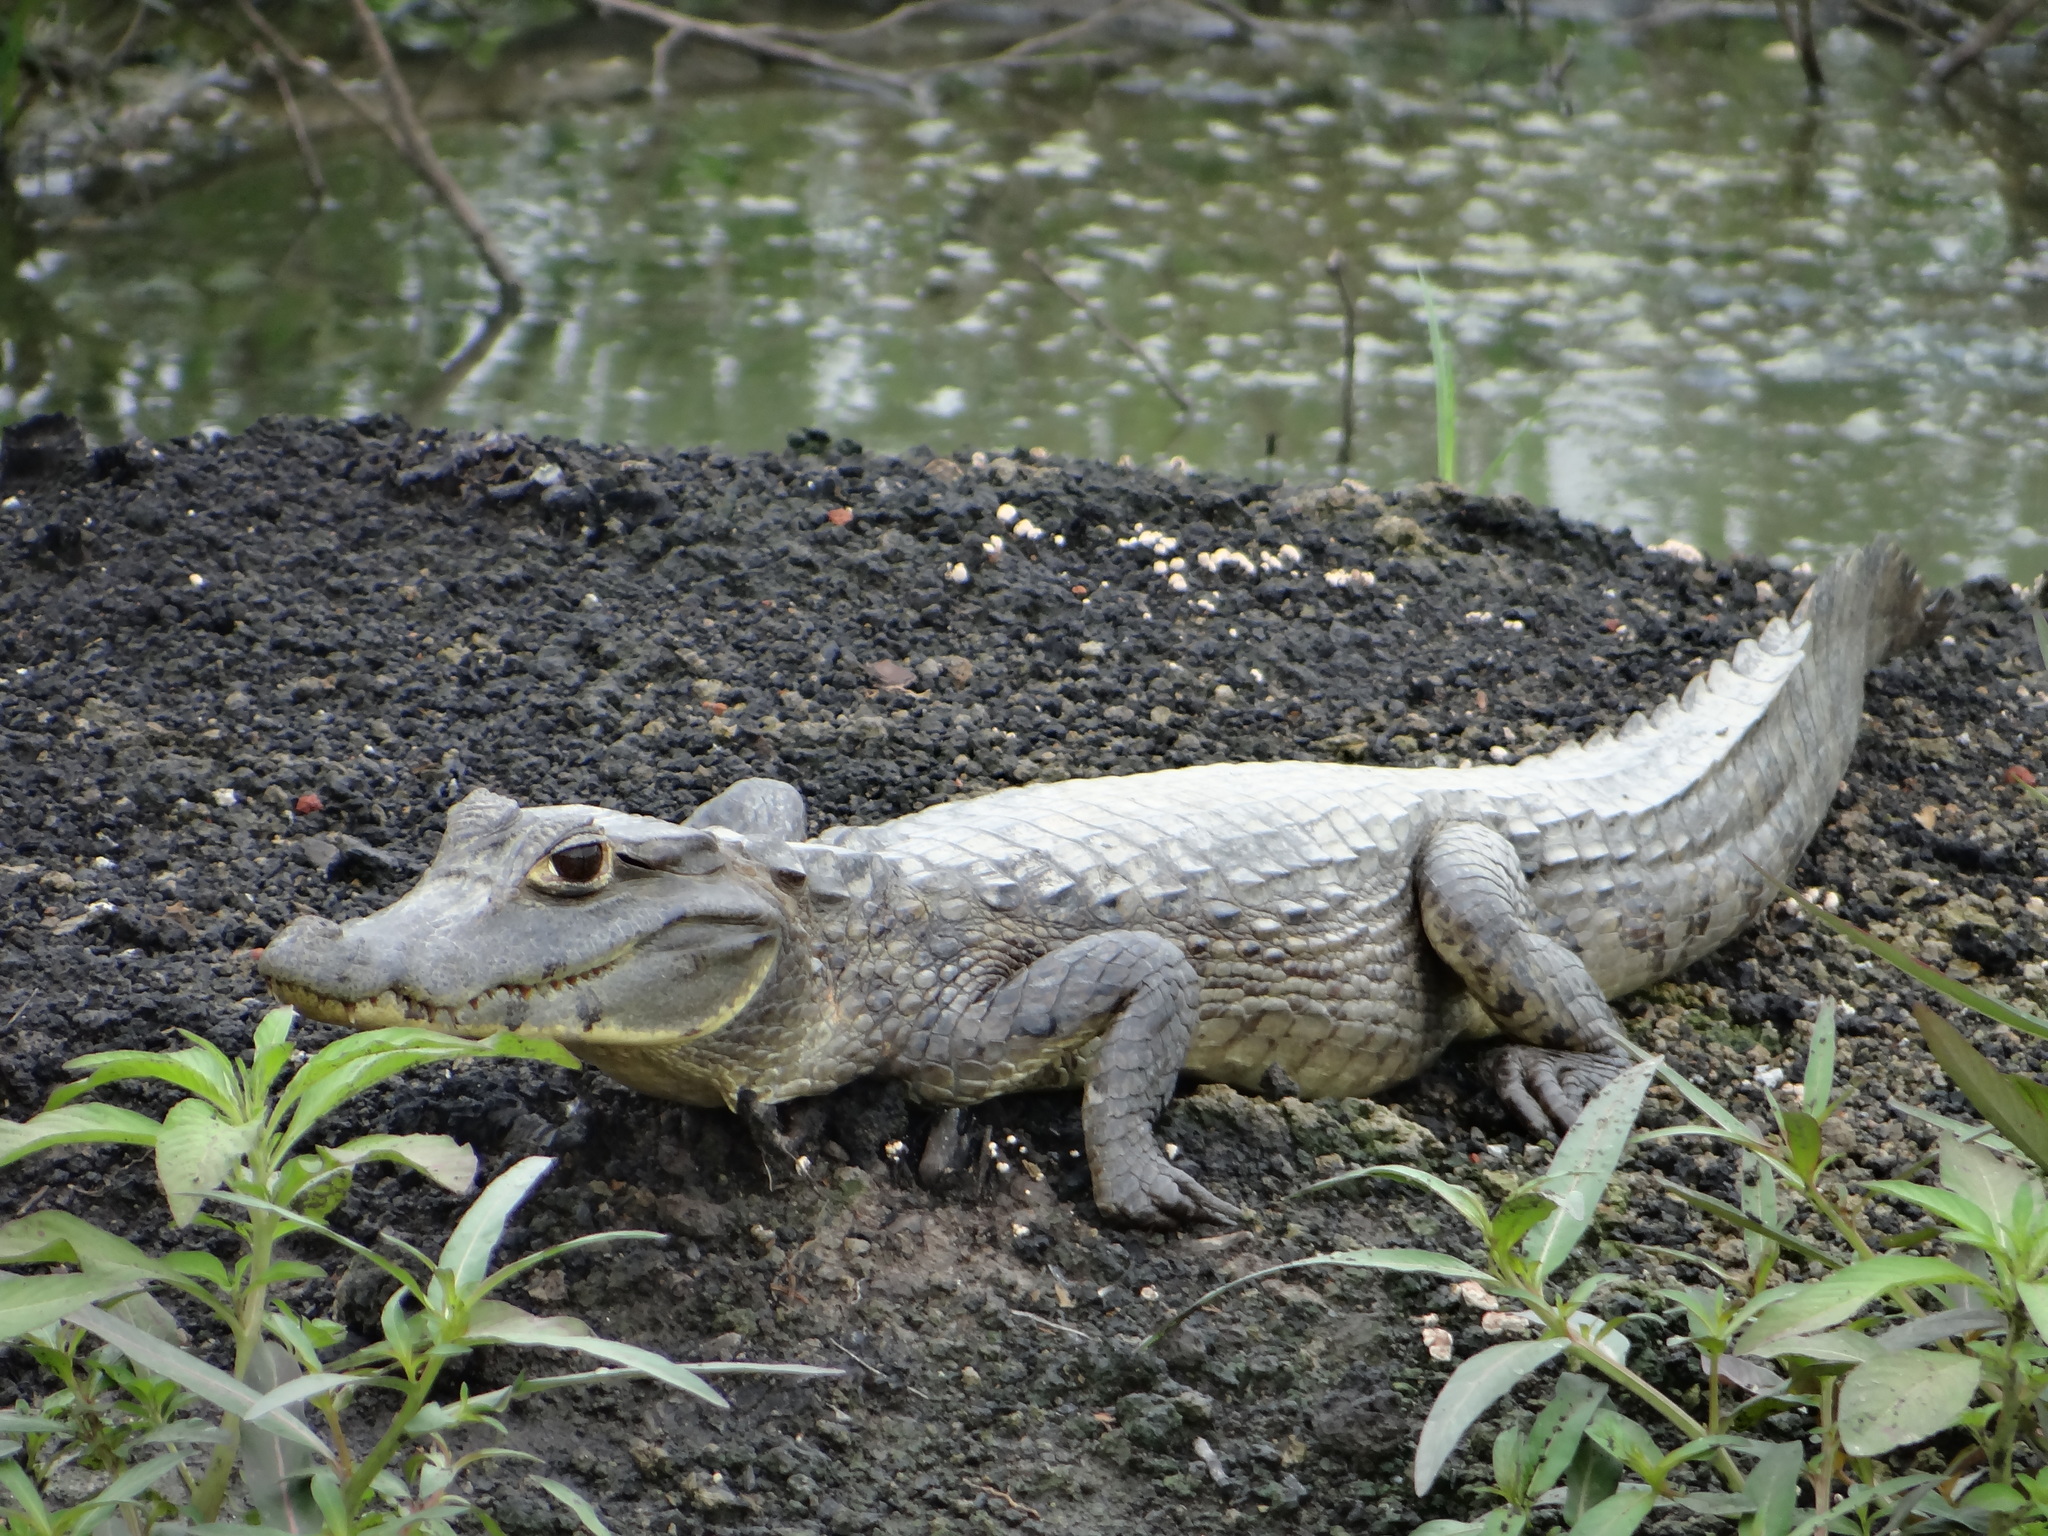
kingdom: Animalia
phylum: Chordata
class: Crocodylia
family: Alligatoridae
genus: Caiman
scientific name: Caiman yacare
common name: Yacare caiman
